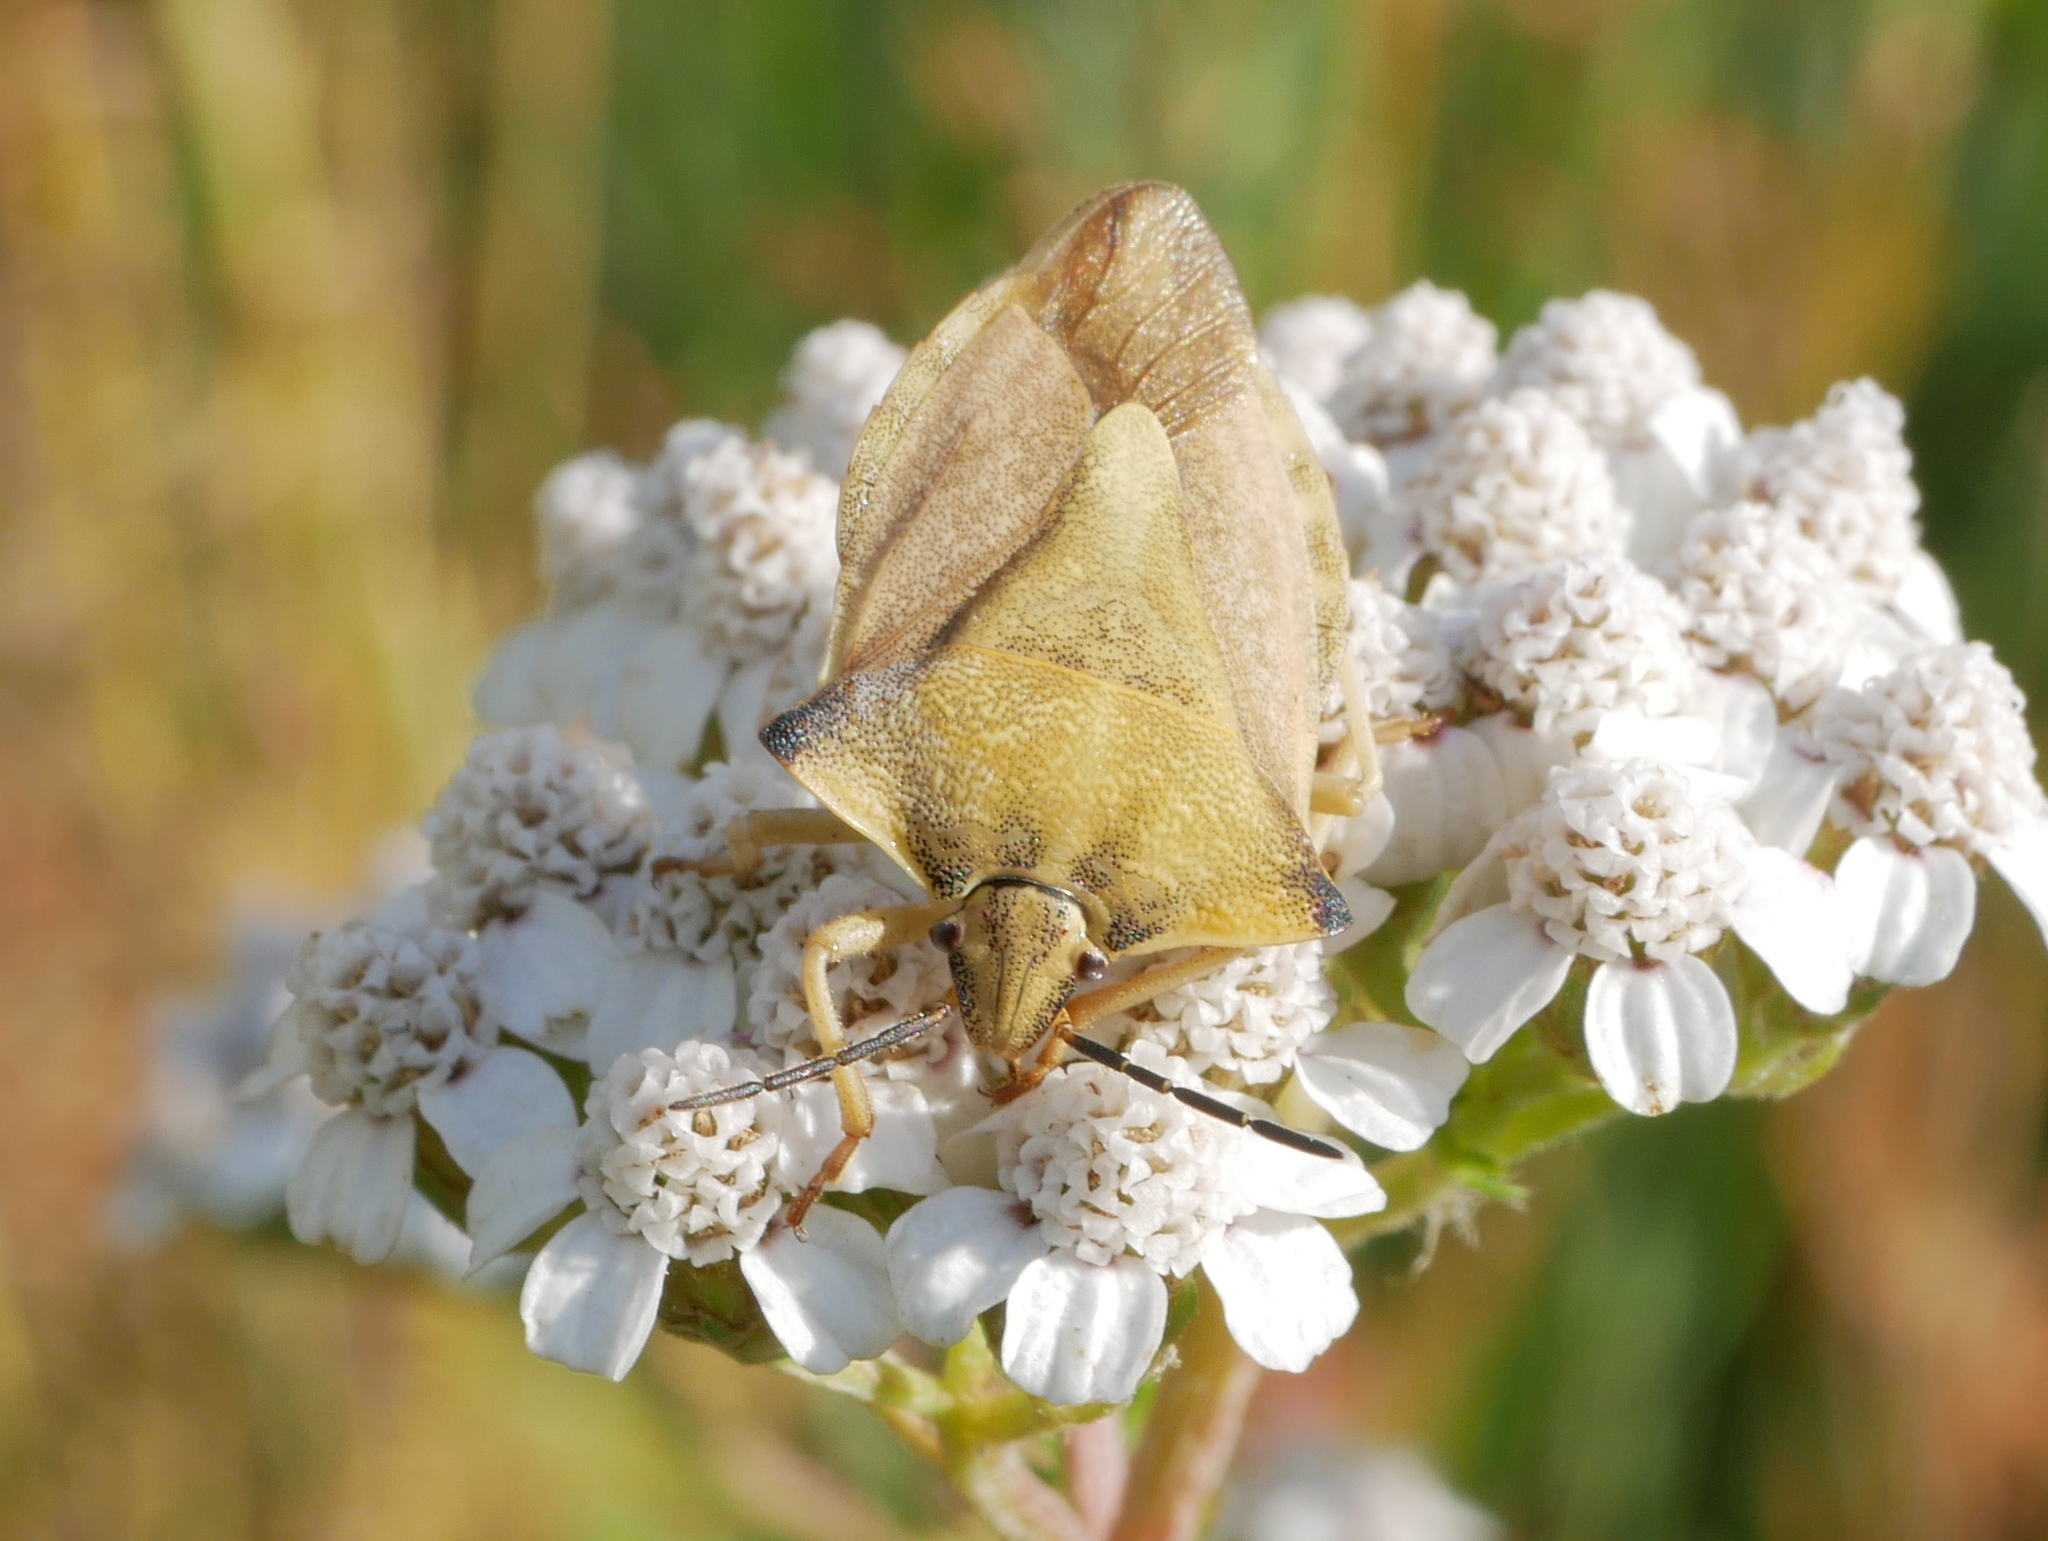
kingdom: Animalia
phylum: Arthropoda
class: Insecta
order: Hemiptera
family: Pentatomidae
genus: Carpocoris
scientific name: Carpocoris fuscispinus
